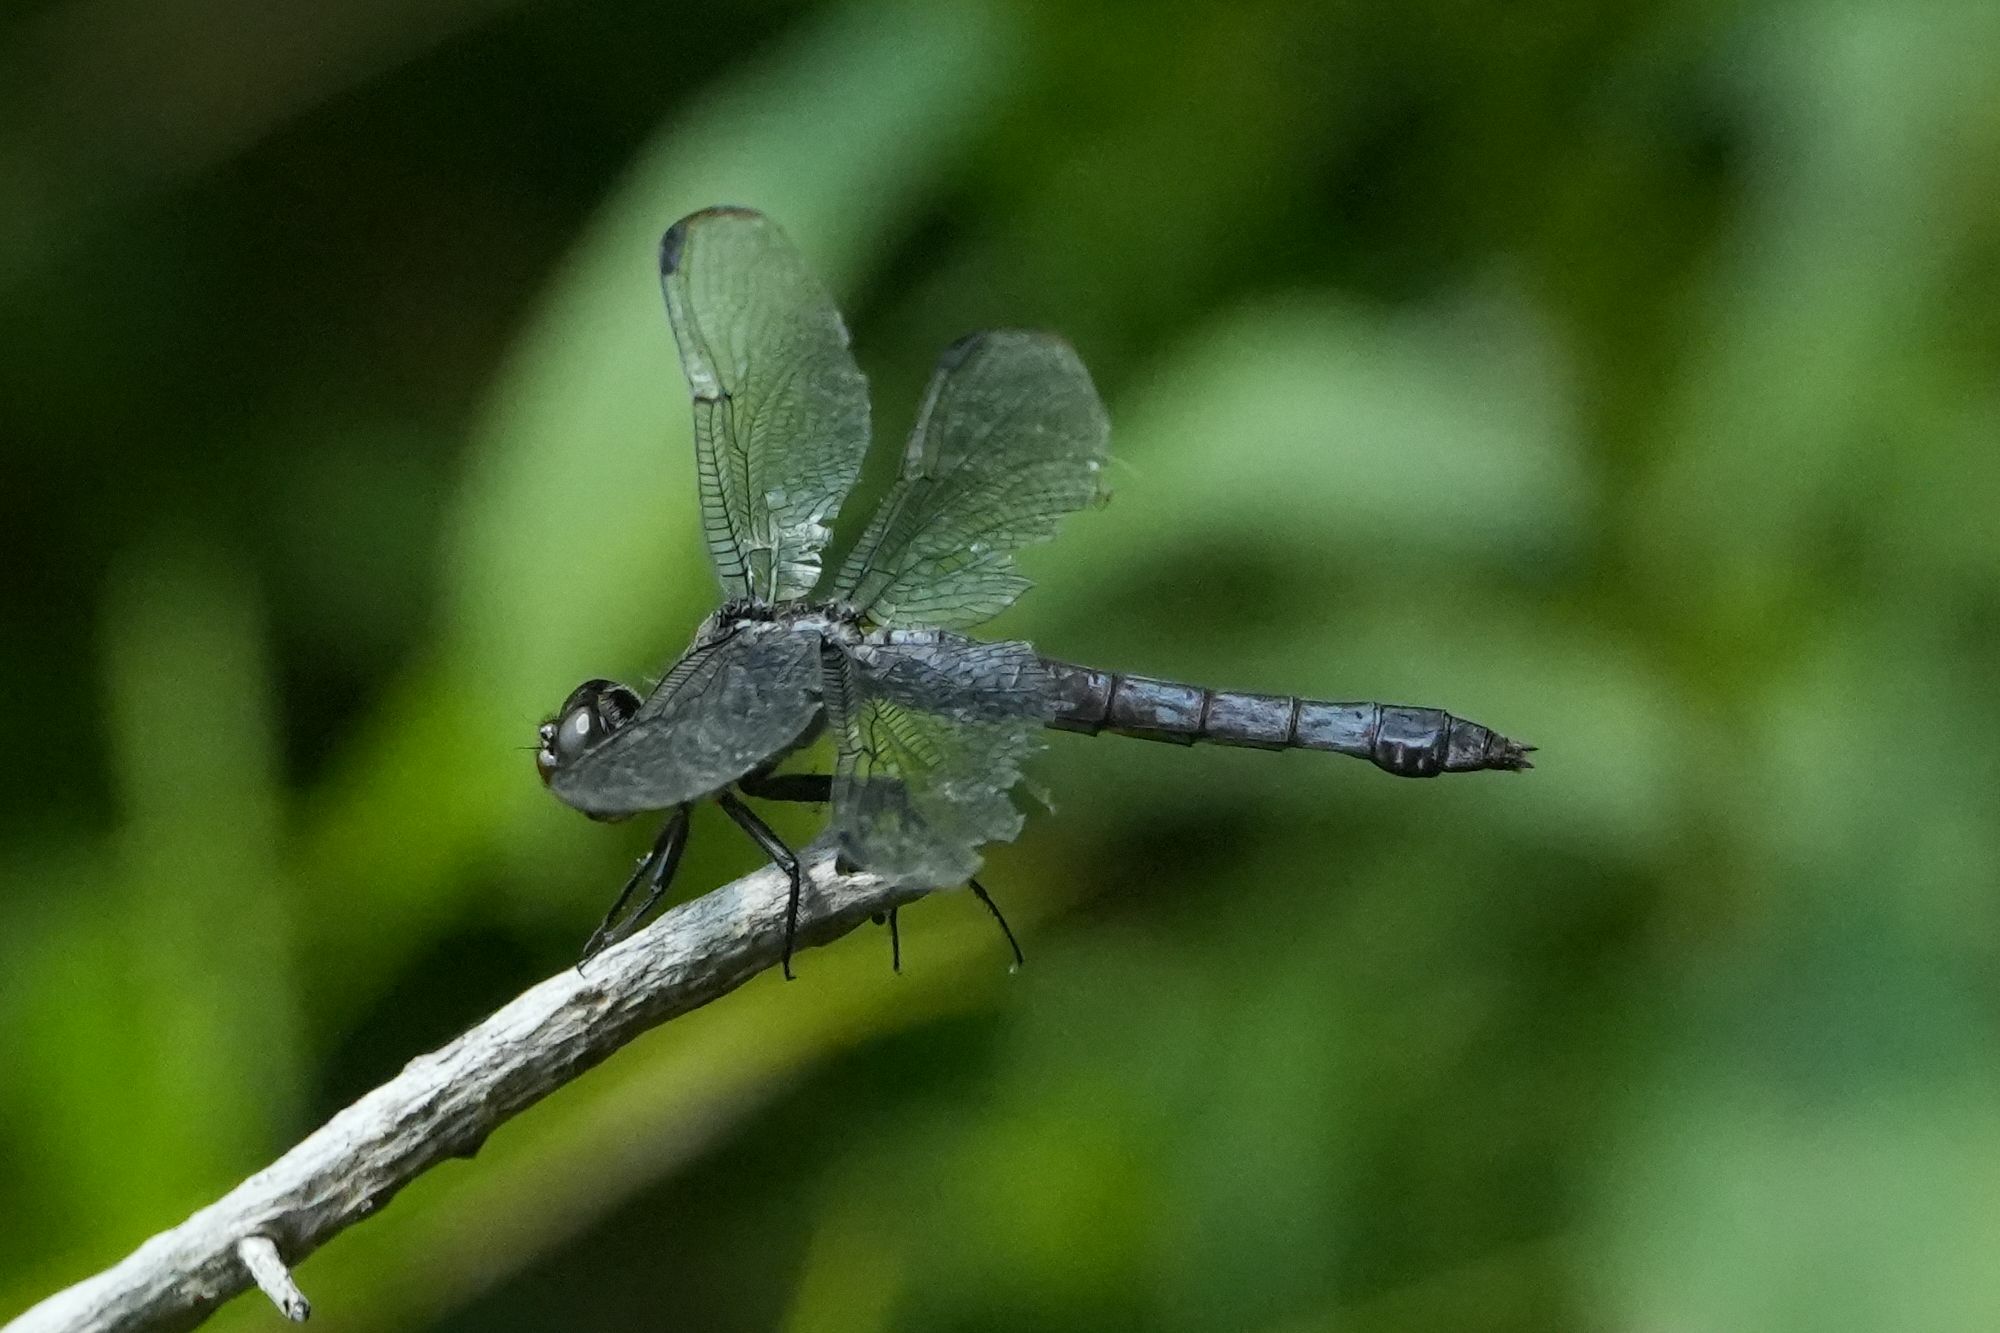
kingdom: Animalia
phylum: Arthropoda
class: Insecta
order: Odonata
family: Libellulidae
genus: Libellula
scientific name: Libellula incesta
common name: Slaty skimmer
